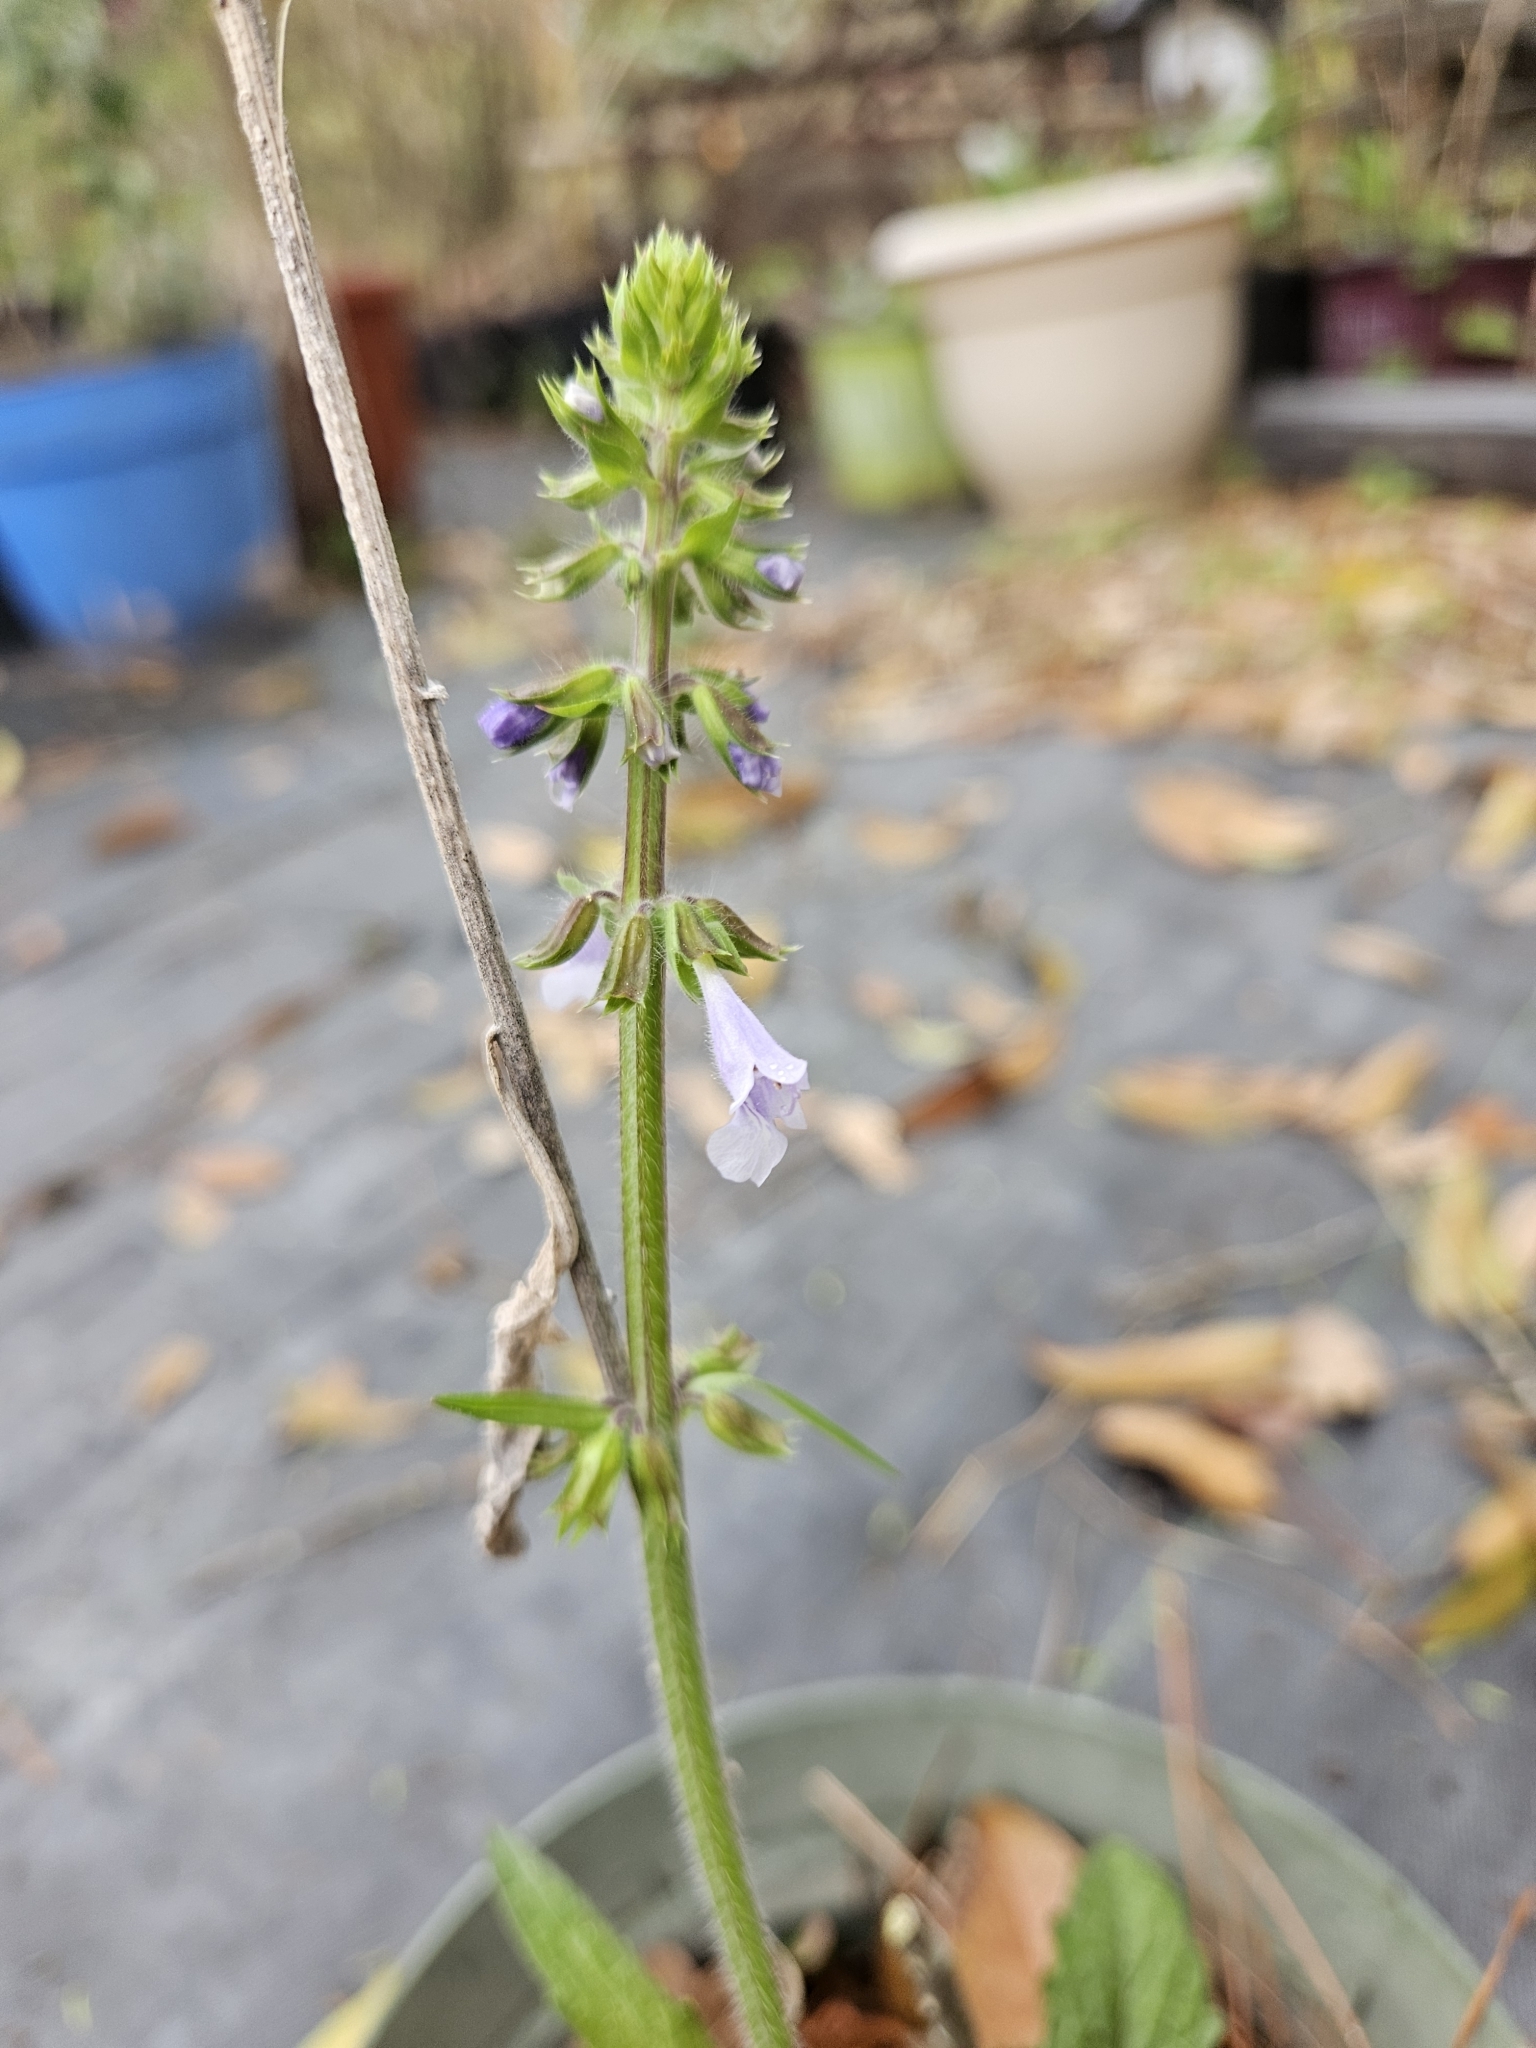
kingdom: Plantae
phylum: Tracheophyta
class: Magnoliopsida
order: Lamiales
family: Lamiaceae
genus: Salvia
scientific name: Salvia lyrata
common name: Cancerweed
